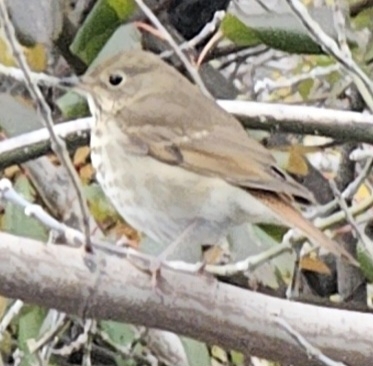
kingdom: Animalia
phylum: Chordata
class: Aves
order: Passeriformes
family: Turdidae
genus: Catharus
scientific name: Catharus guttatus
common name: Hermit thrush
